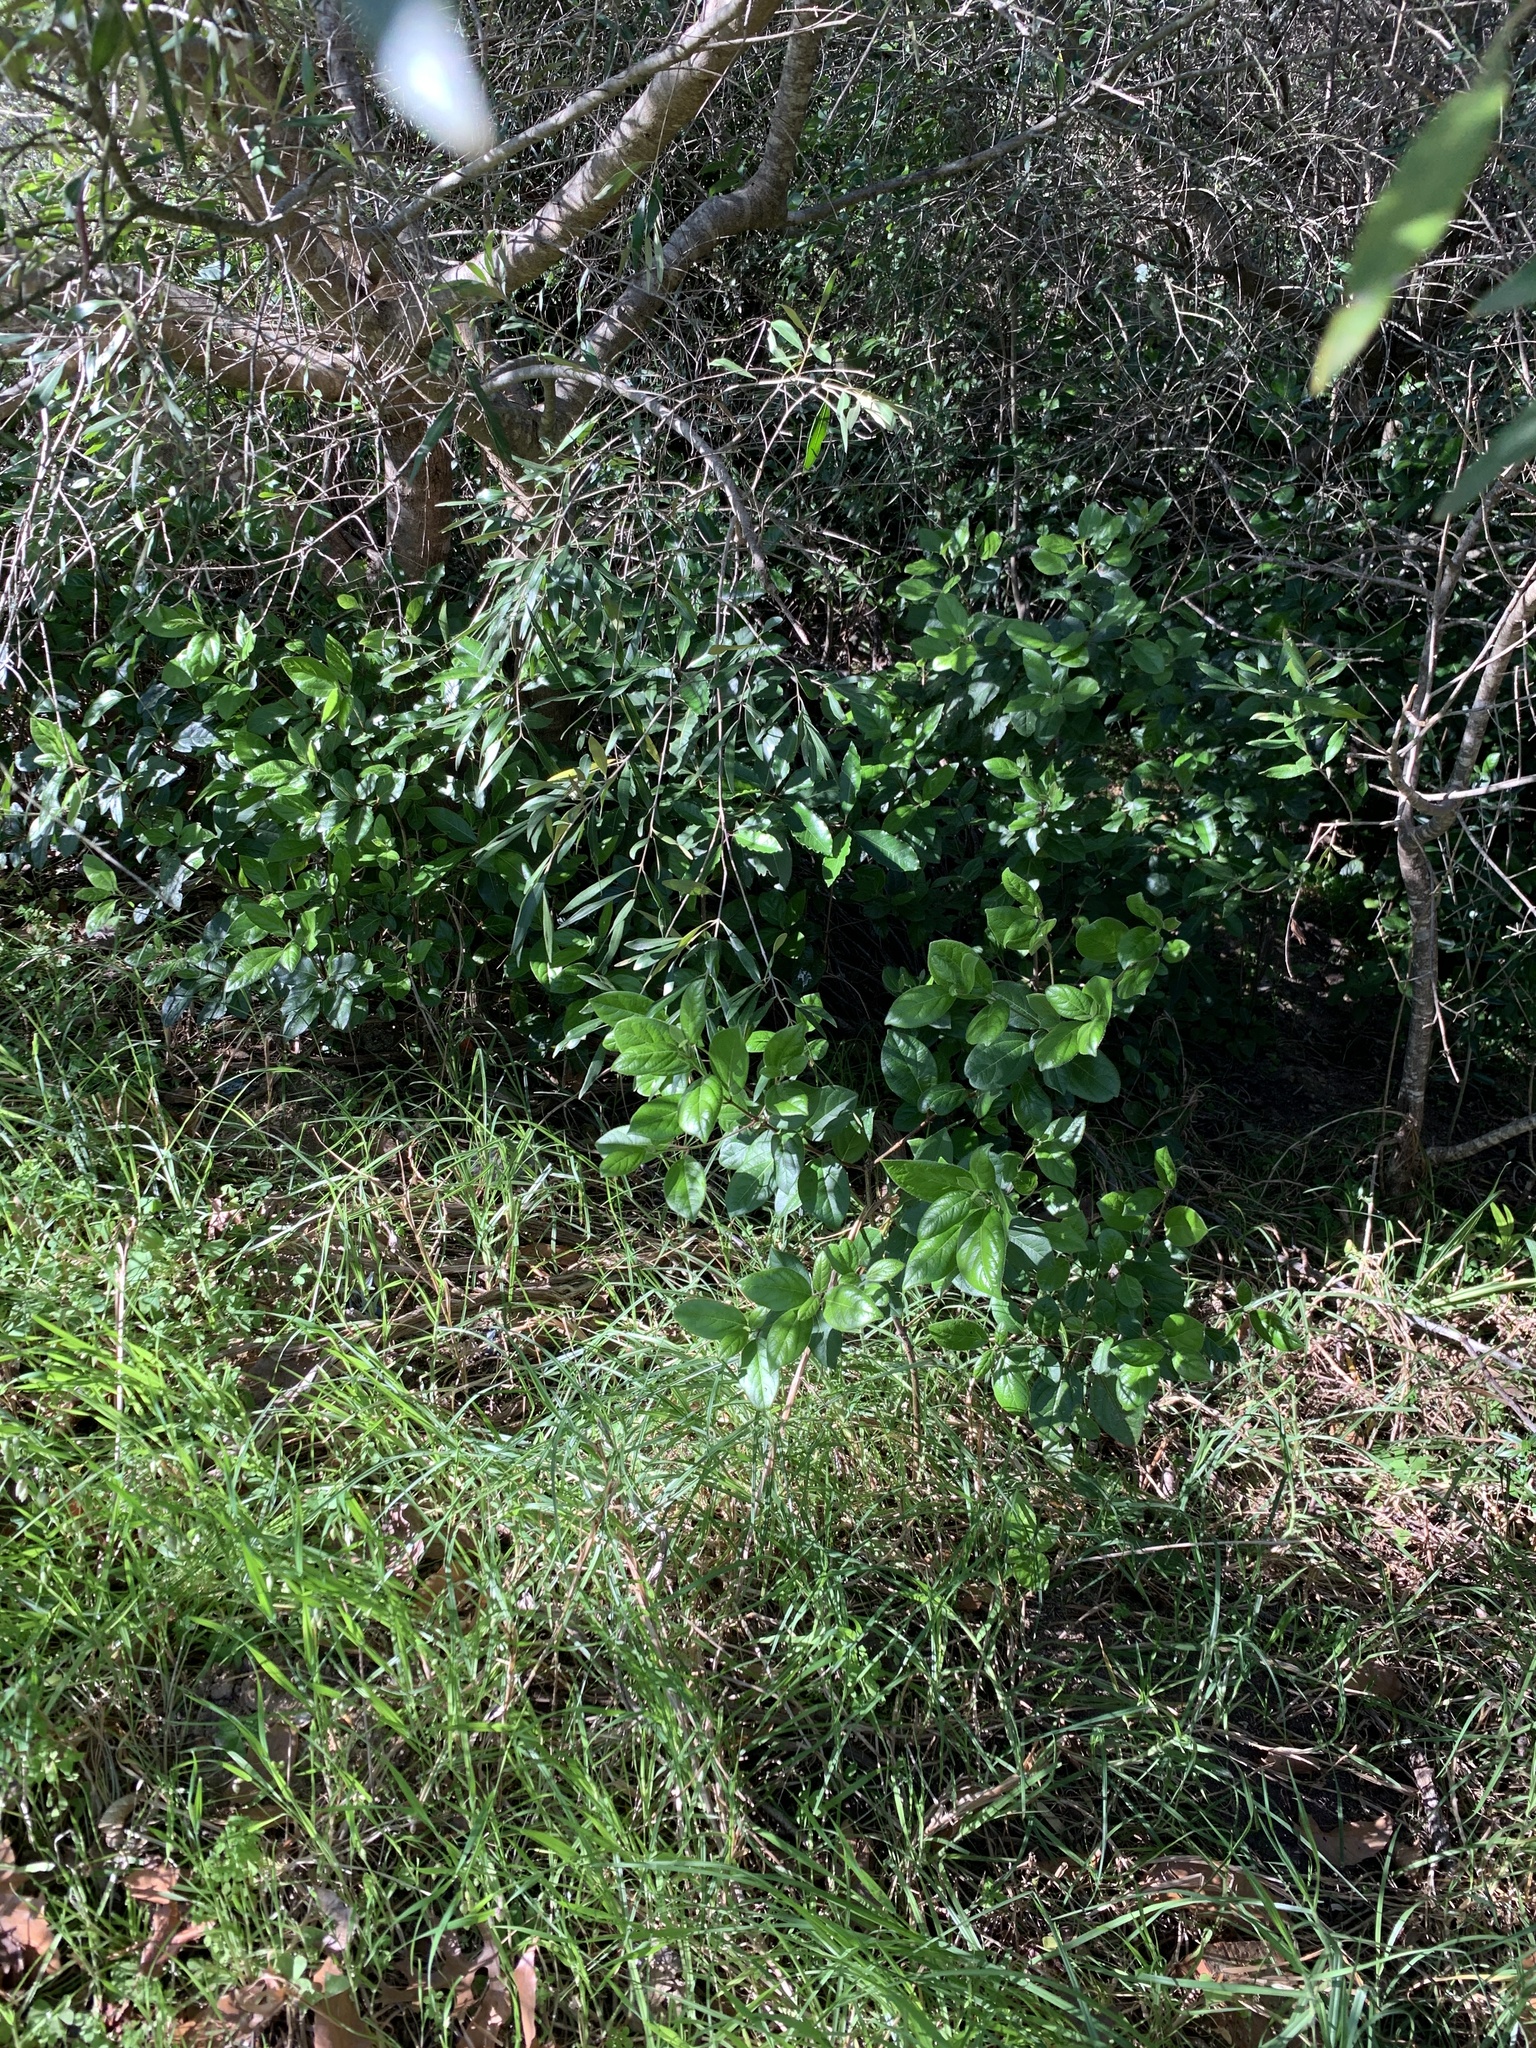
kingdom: Plantae
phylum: Tracheophyta
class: Magnoliopsida
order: Dipsacales
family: Viburnaceae
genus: Viburnum
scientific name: Viburnum tinus
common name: Laurustinus
